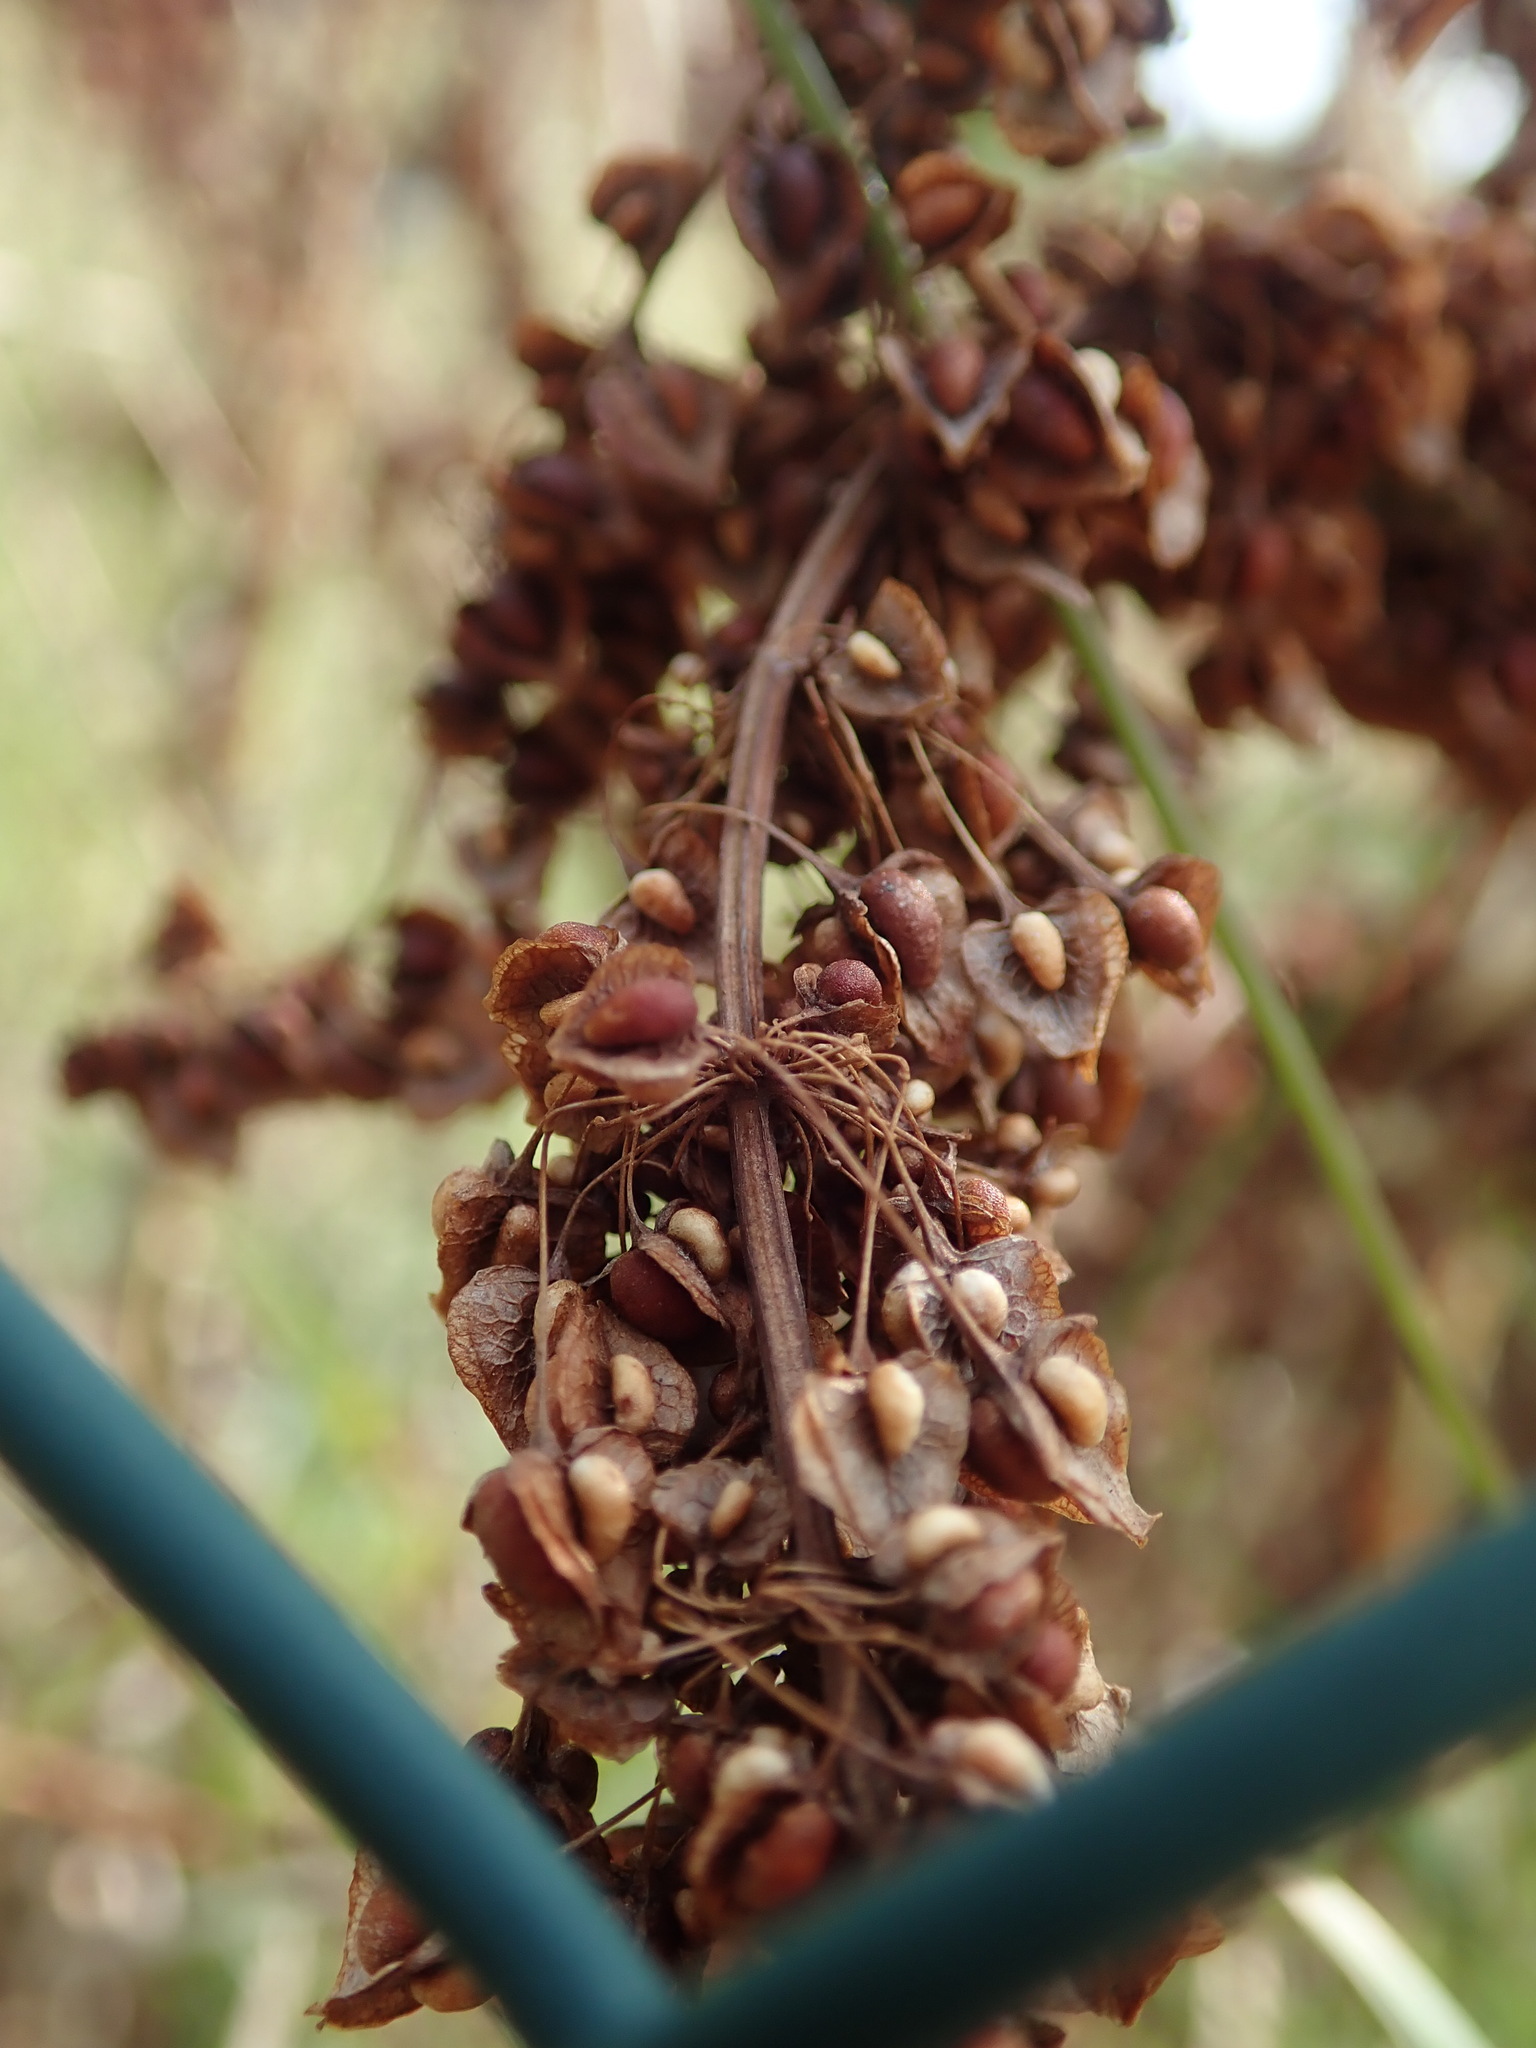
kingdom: Plantae
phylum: Tracheophyta
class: Magnoliopsida
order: Caryophyllales
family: Polygonaceae
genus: Rumex
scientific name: Rumex crispus
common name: Curled dock
